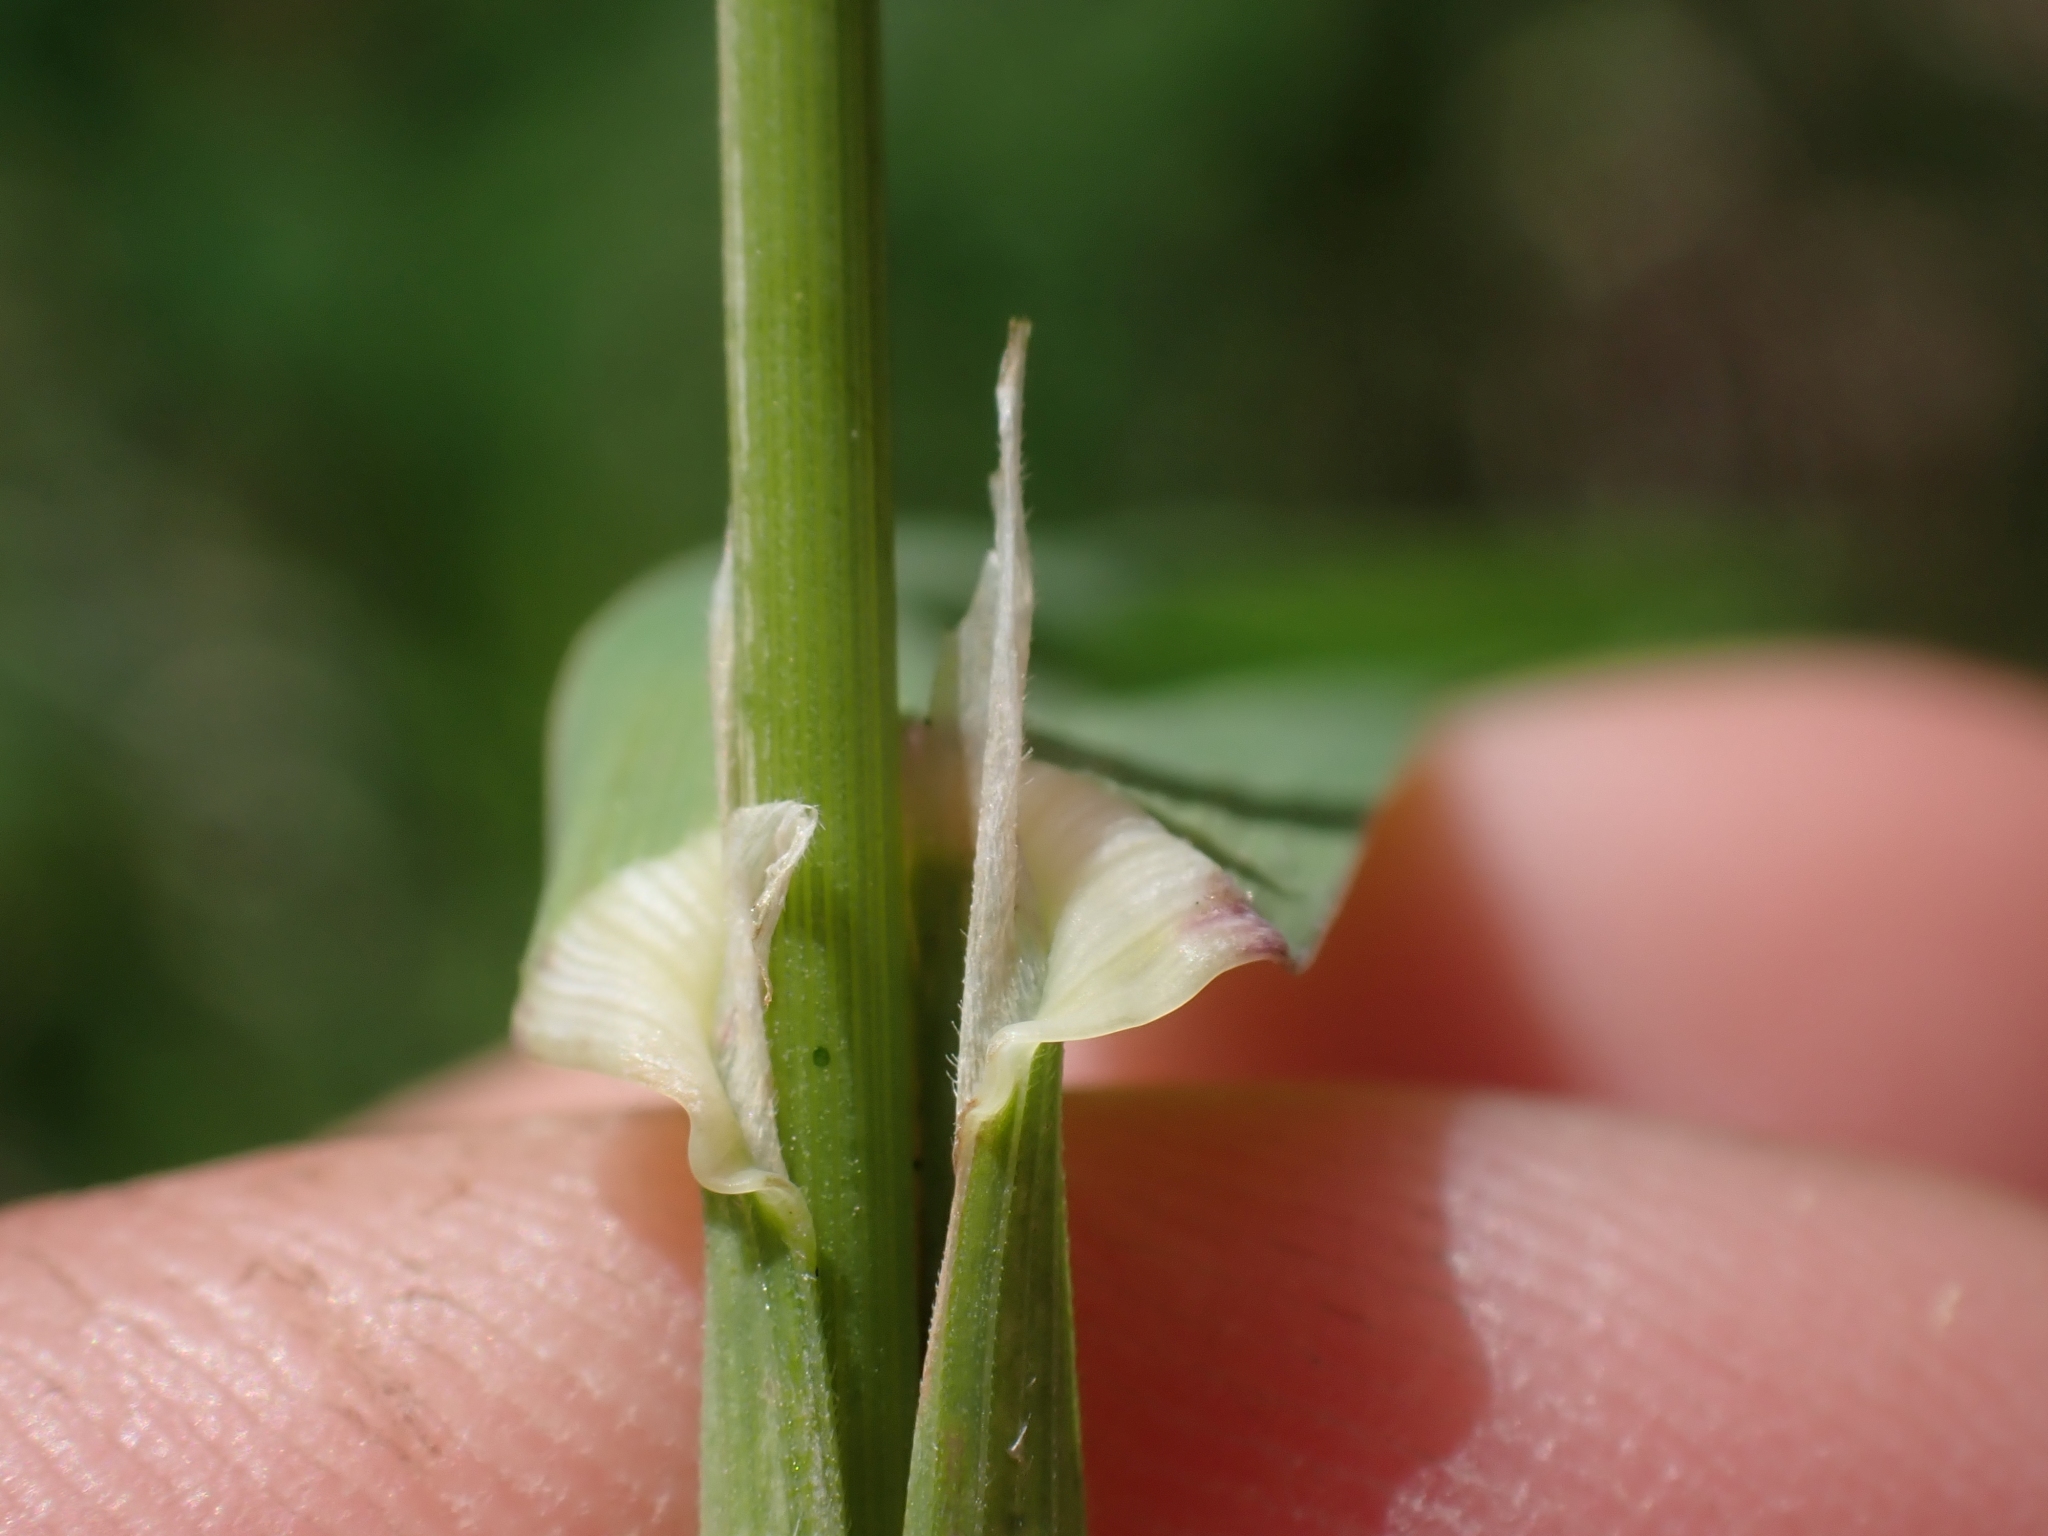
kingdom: Plantae
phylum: Tracheophyta
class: Liliopsida
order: Poales
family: Poaceae
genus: Dactylis
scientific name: Dactylis glomerata
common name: Orchardgrass
